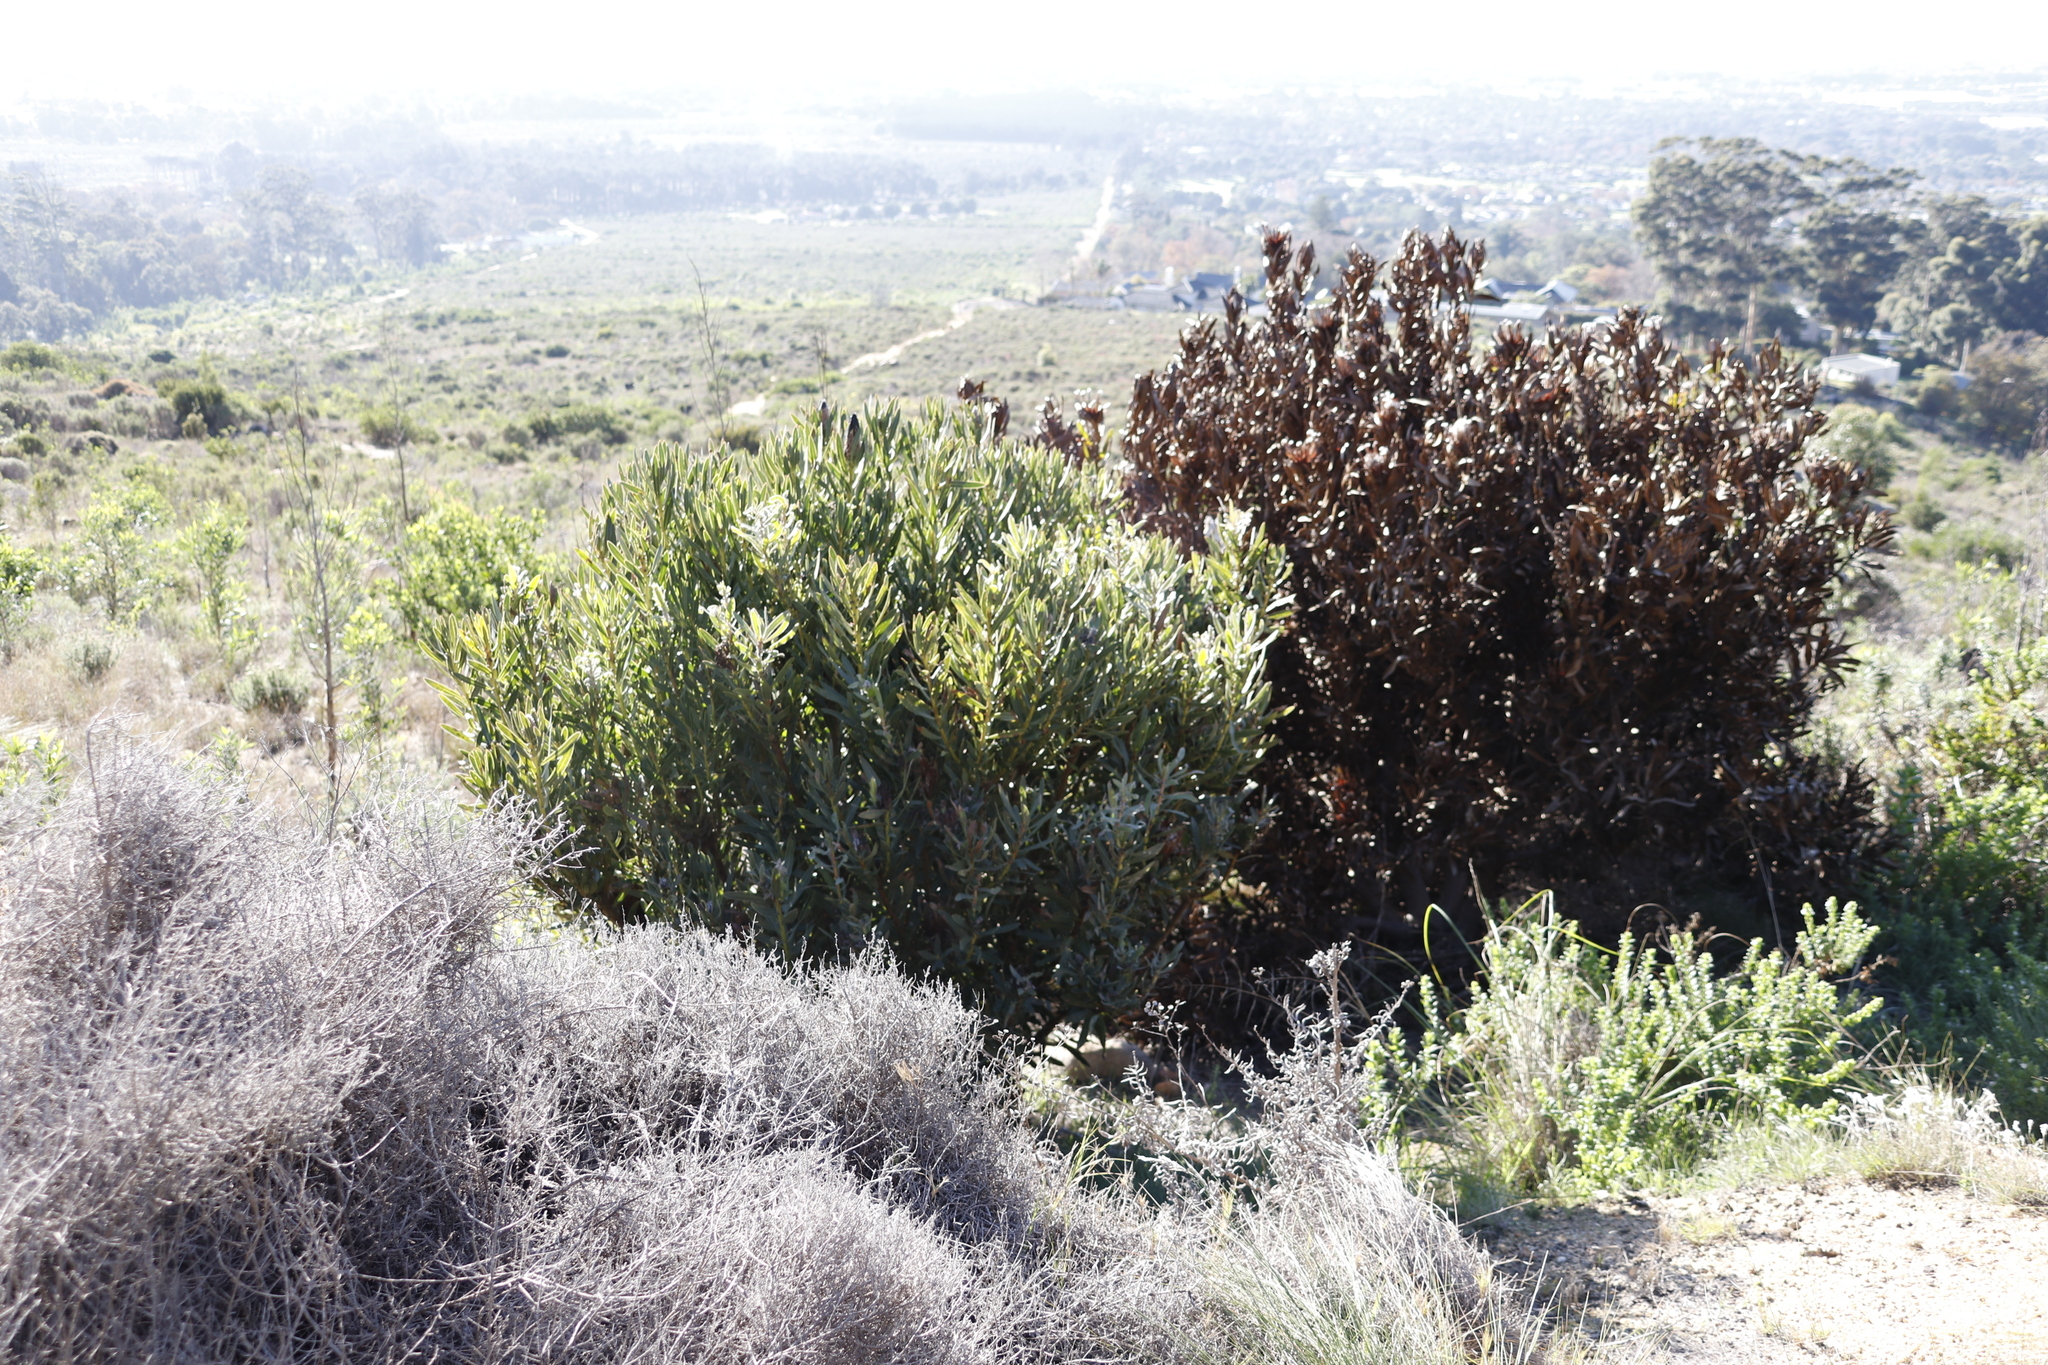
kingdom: Plantae
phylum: Tracheophyta
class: Magnoliopsida
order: Proteales
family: Proteaceae
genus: Protea
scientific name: Protea lepidocarpodendron
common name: Black-bearded protea
